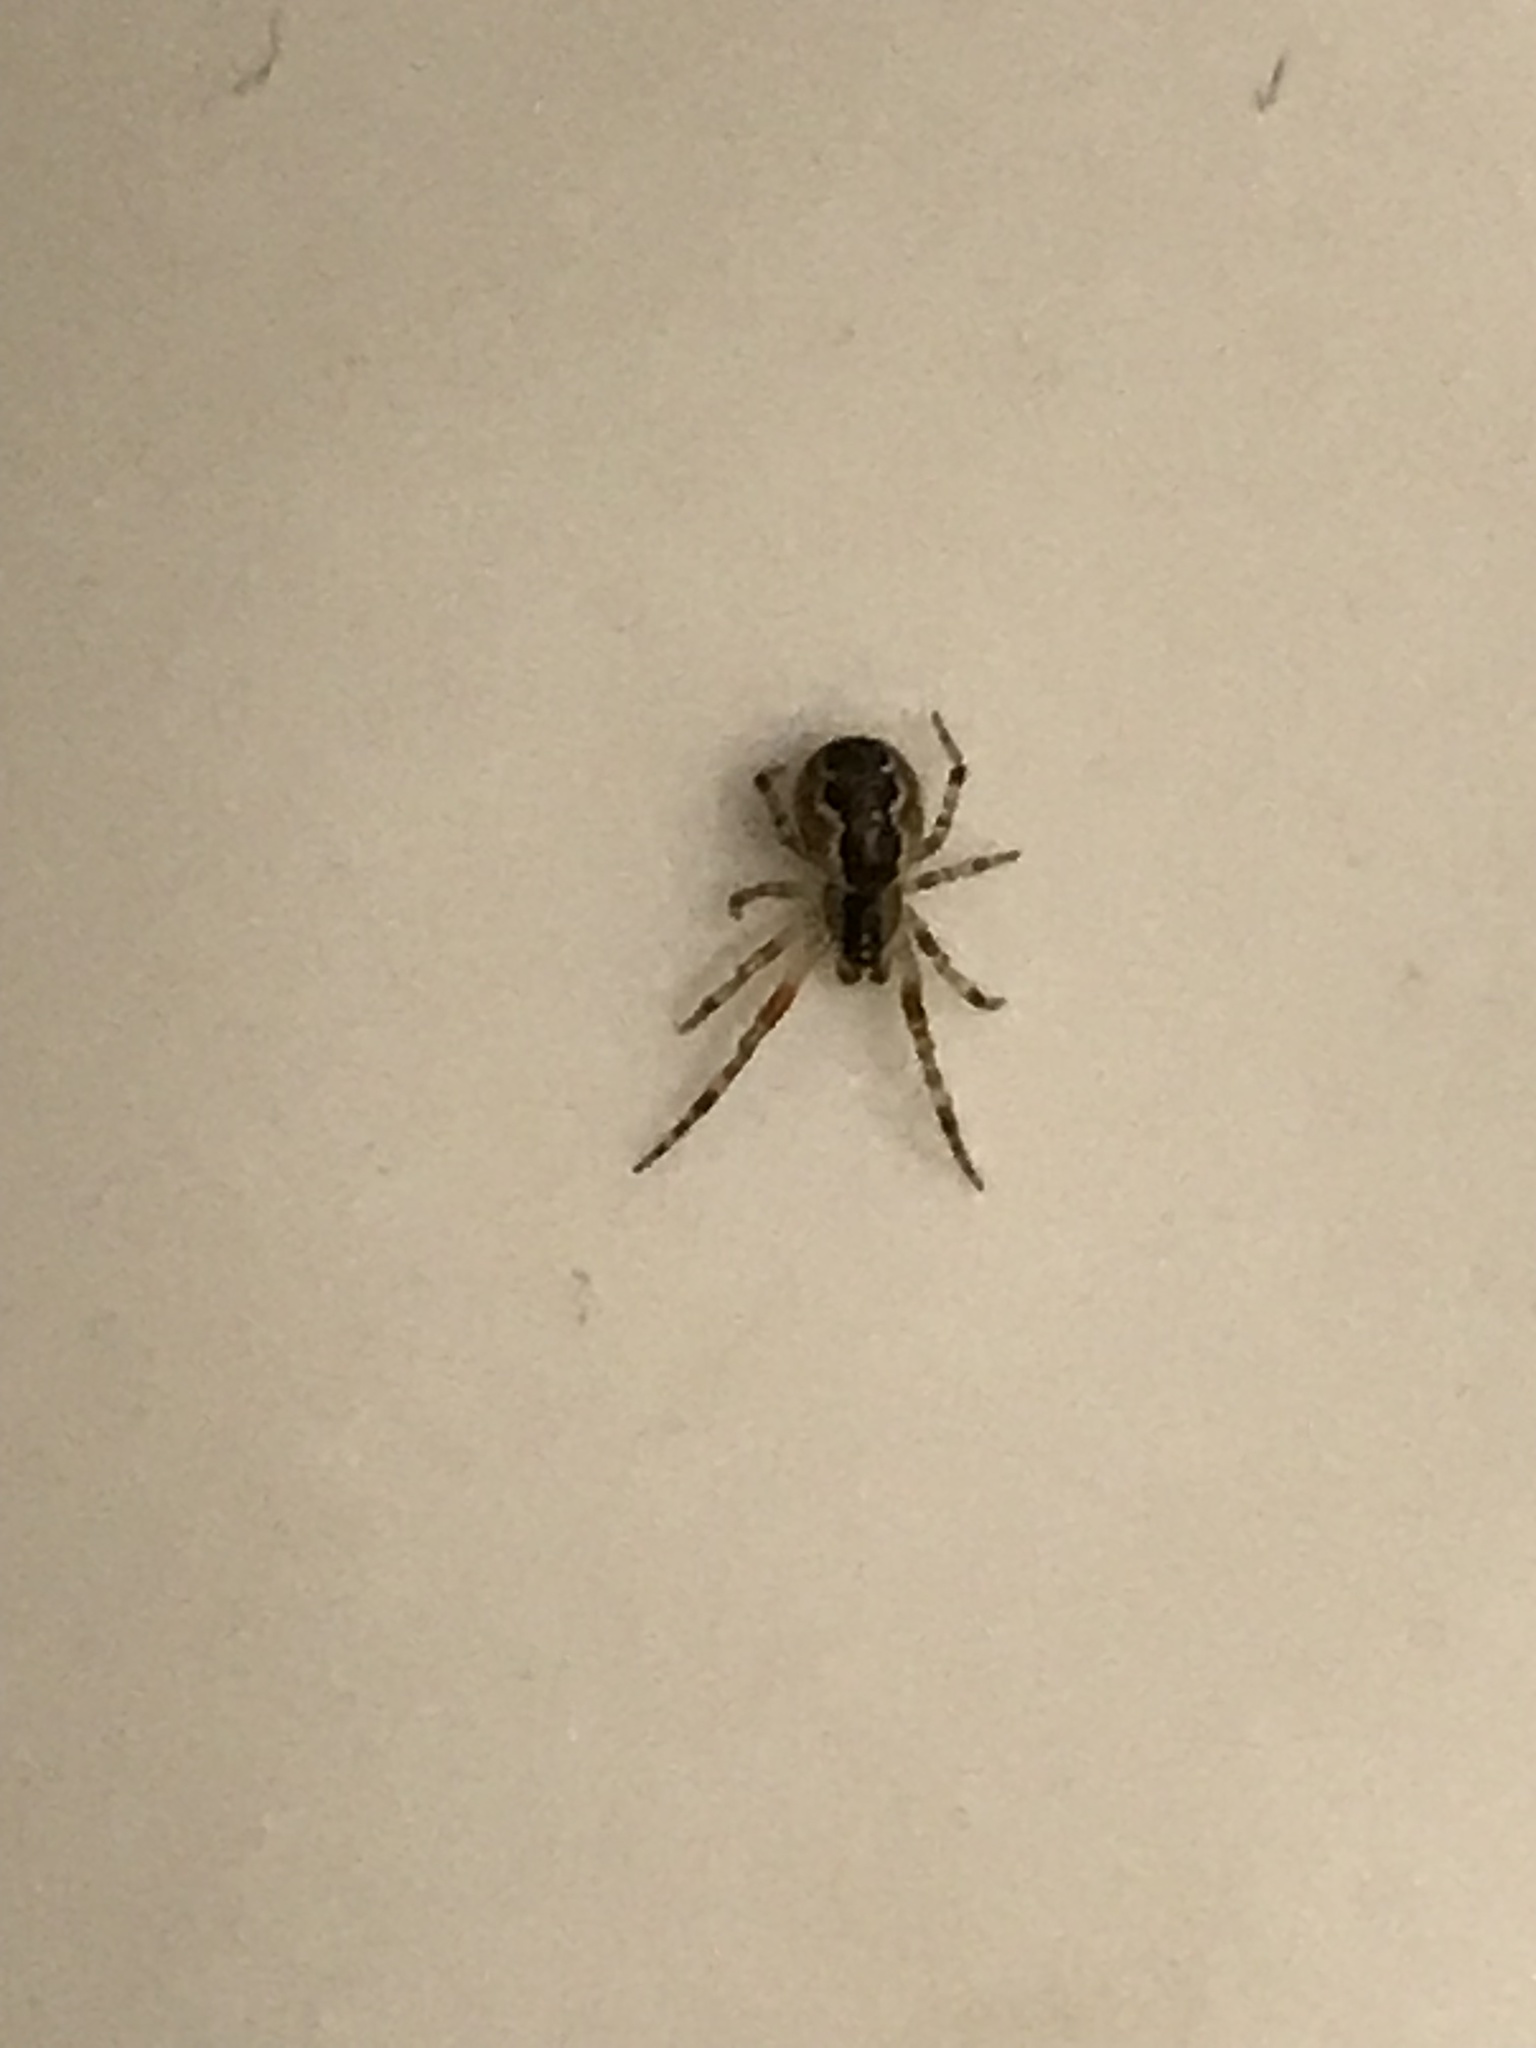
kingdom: Animalia
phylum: Arthropoda
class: Arachnida
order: Araneae
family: Theridiidae
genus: Anelosimus
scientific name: Anelosimus vittatus
